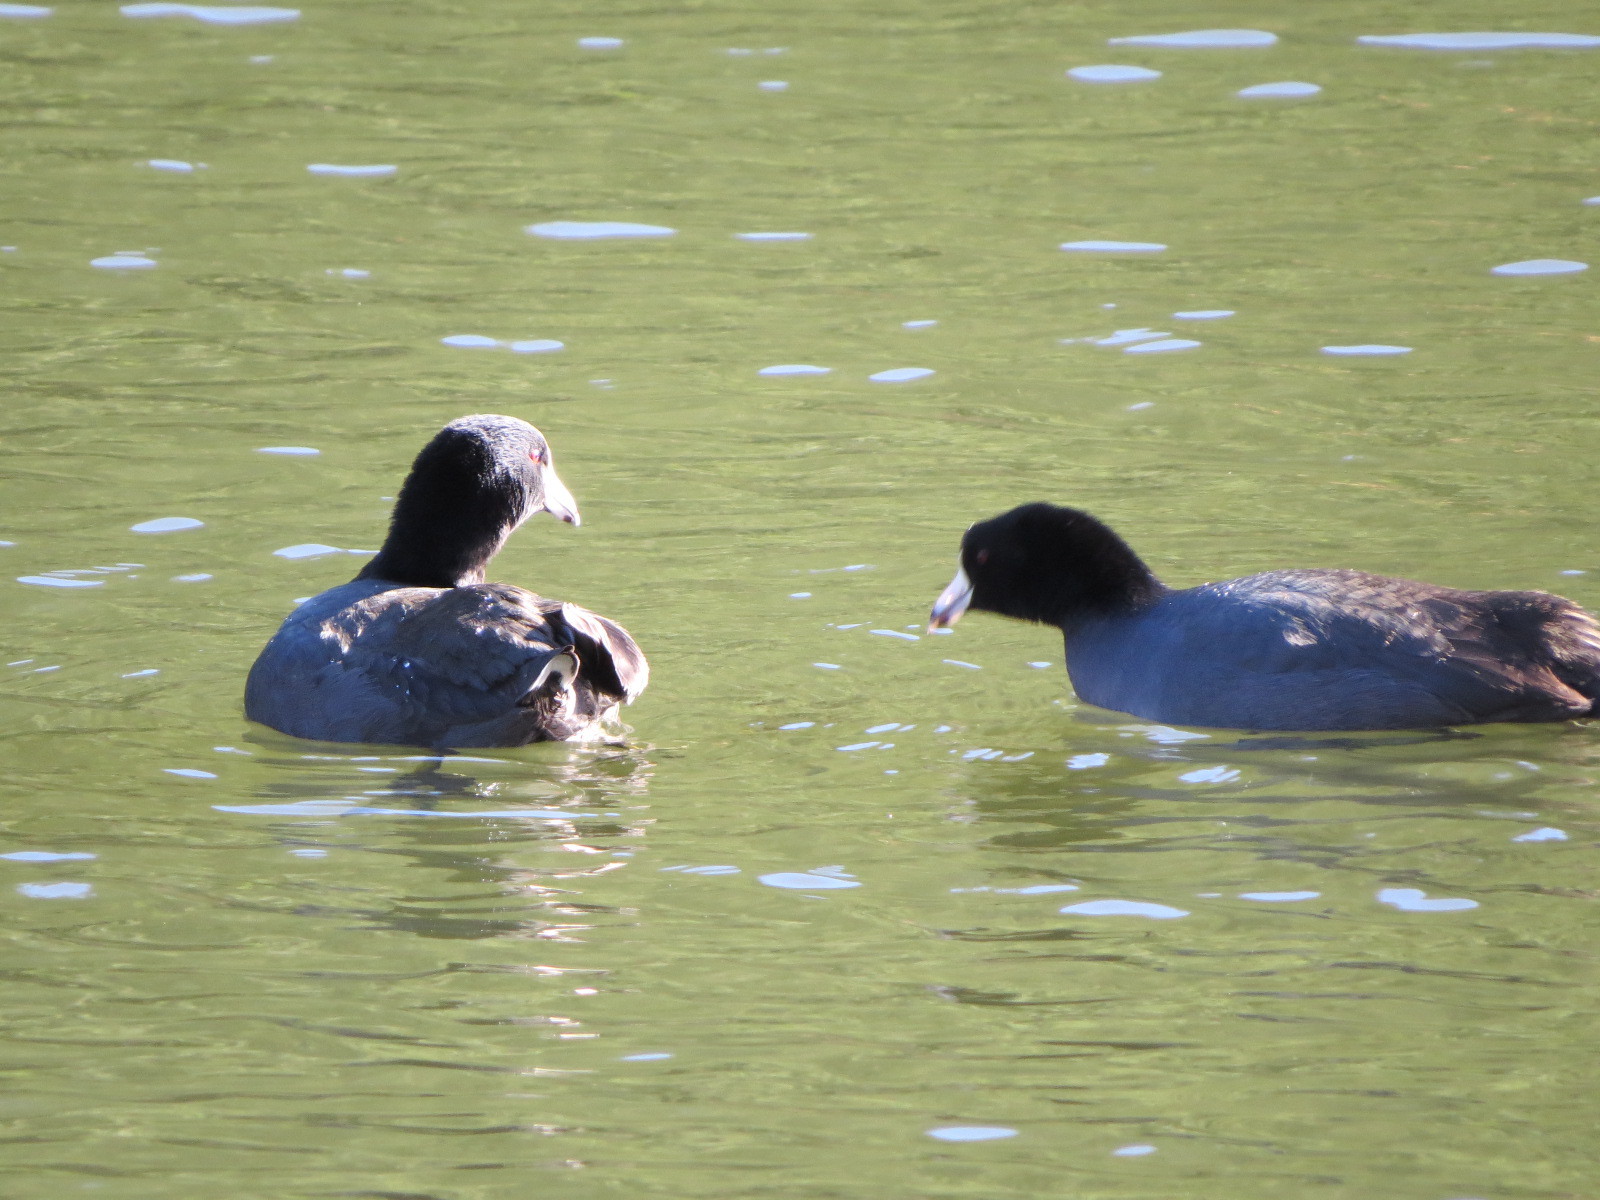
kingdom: Animalia
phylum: Chordata
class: Aves
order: Gruiformes
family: Rallidae
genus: Fulica
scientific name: Fulica americana
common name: American coot
